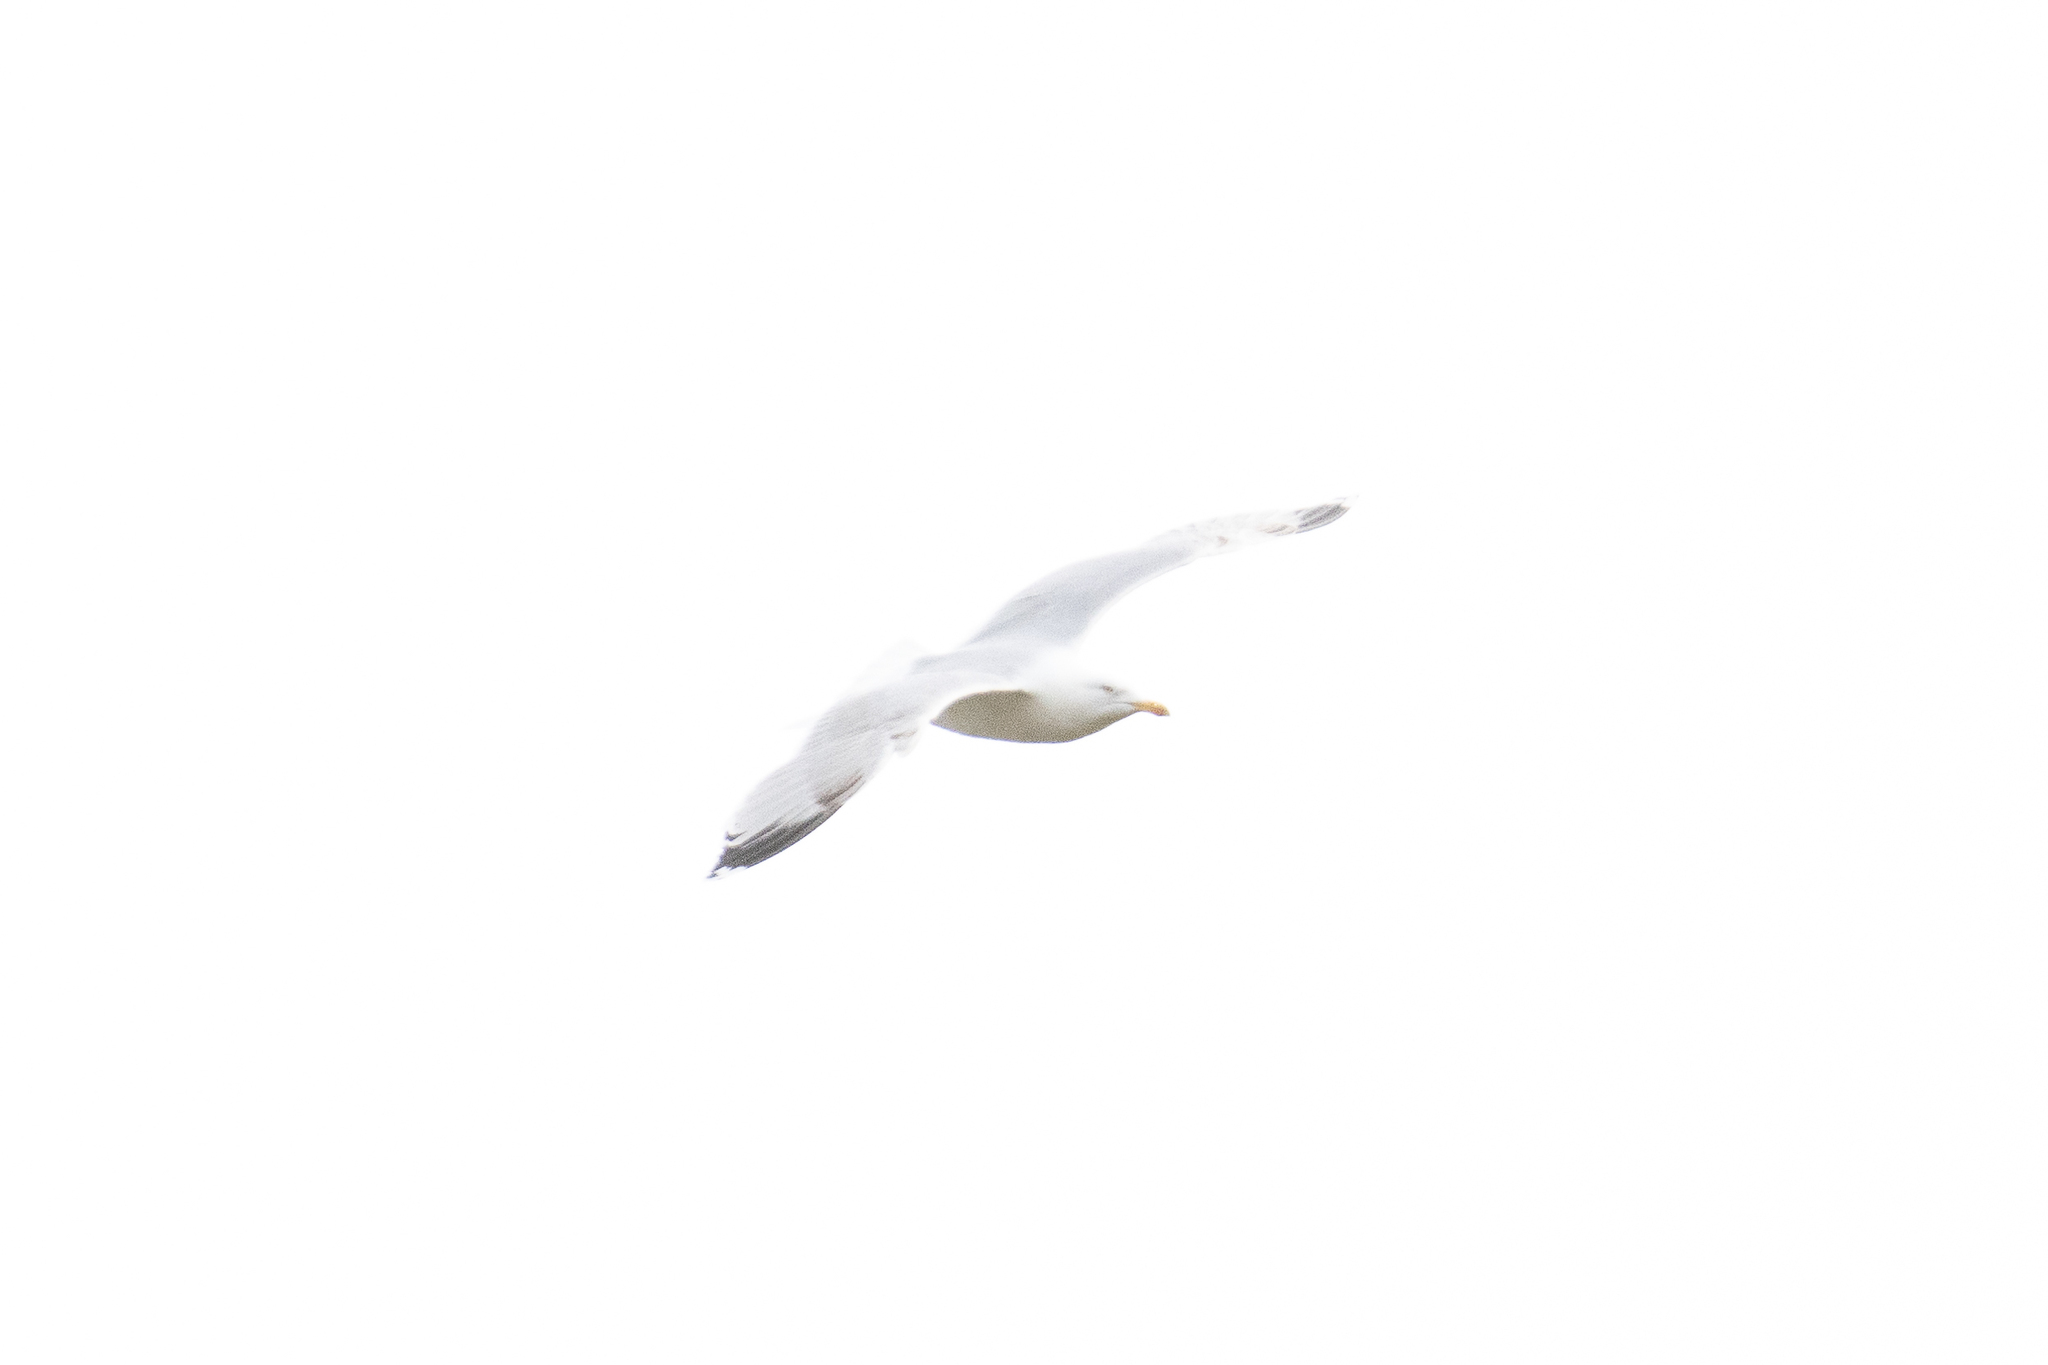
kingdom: Animalia
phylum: Chordata
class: Aves
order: Charadriiformes
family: Laridae
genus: Larus
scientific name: Larus argentatus
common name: Herring gull
